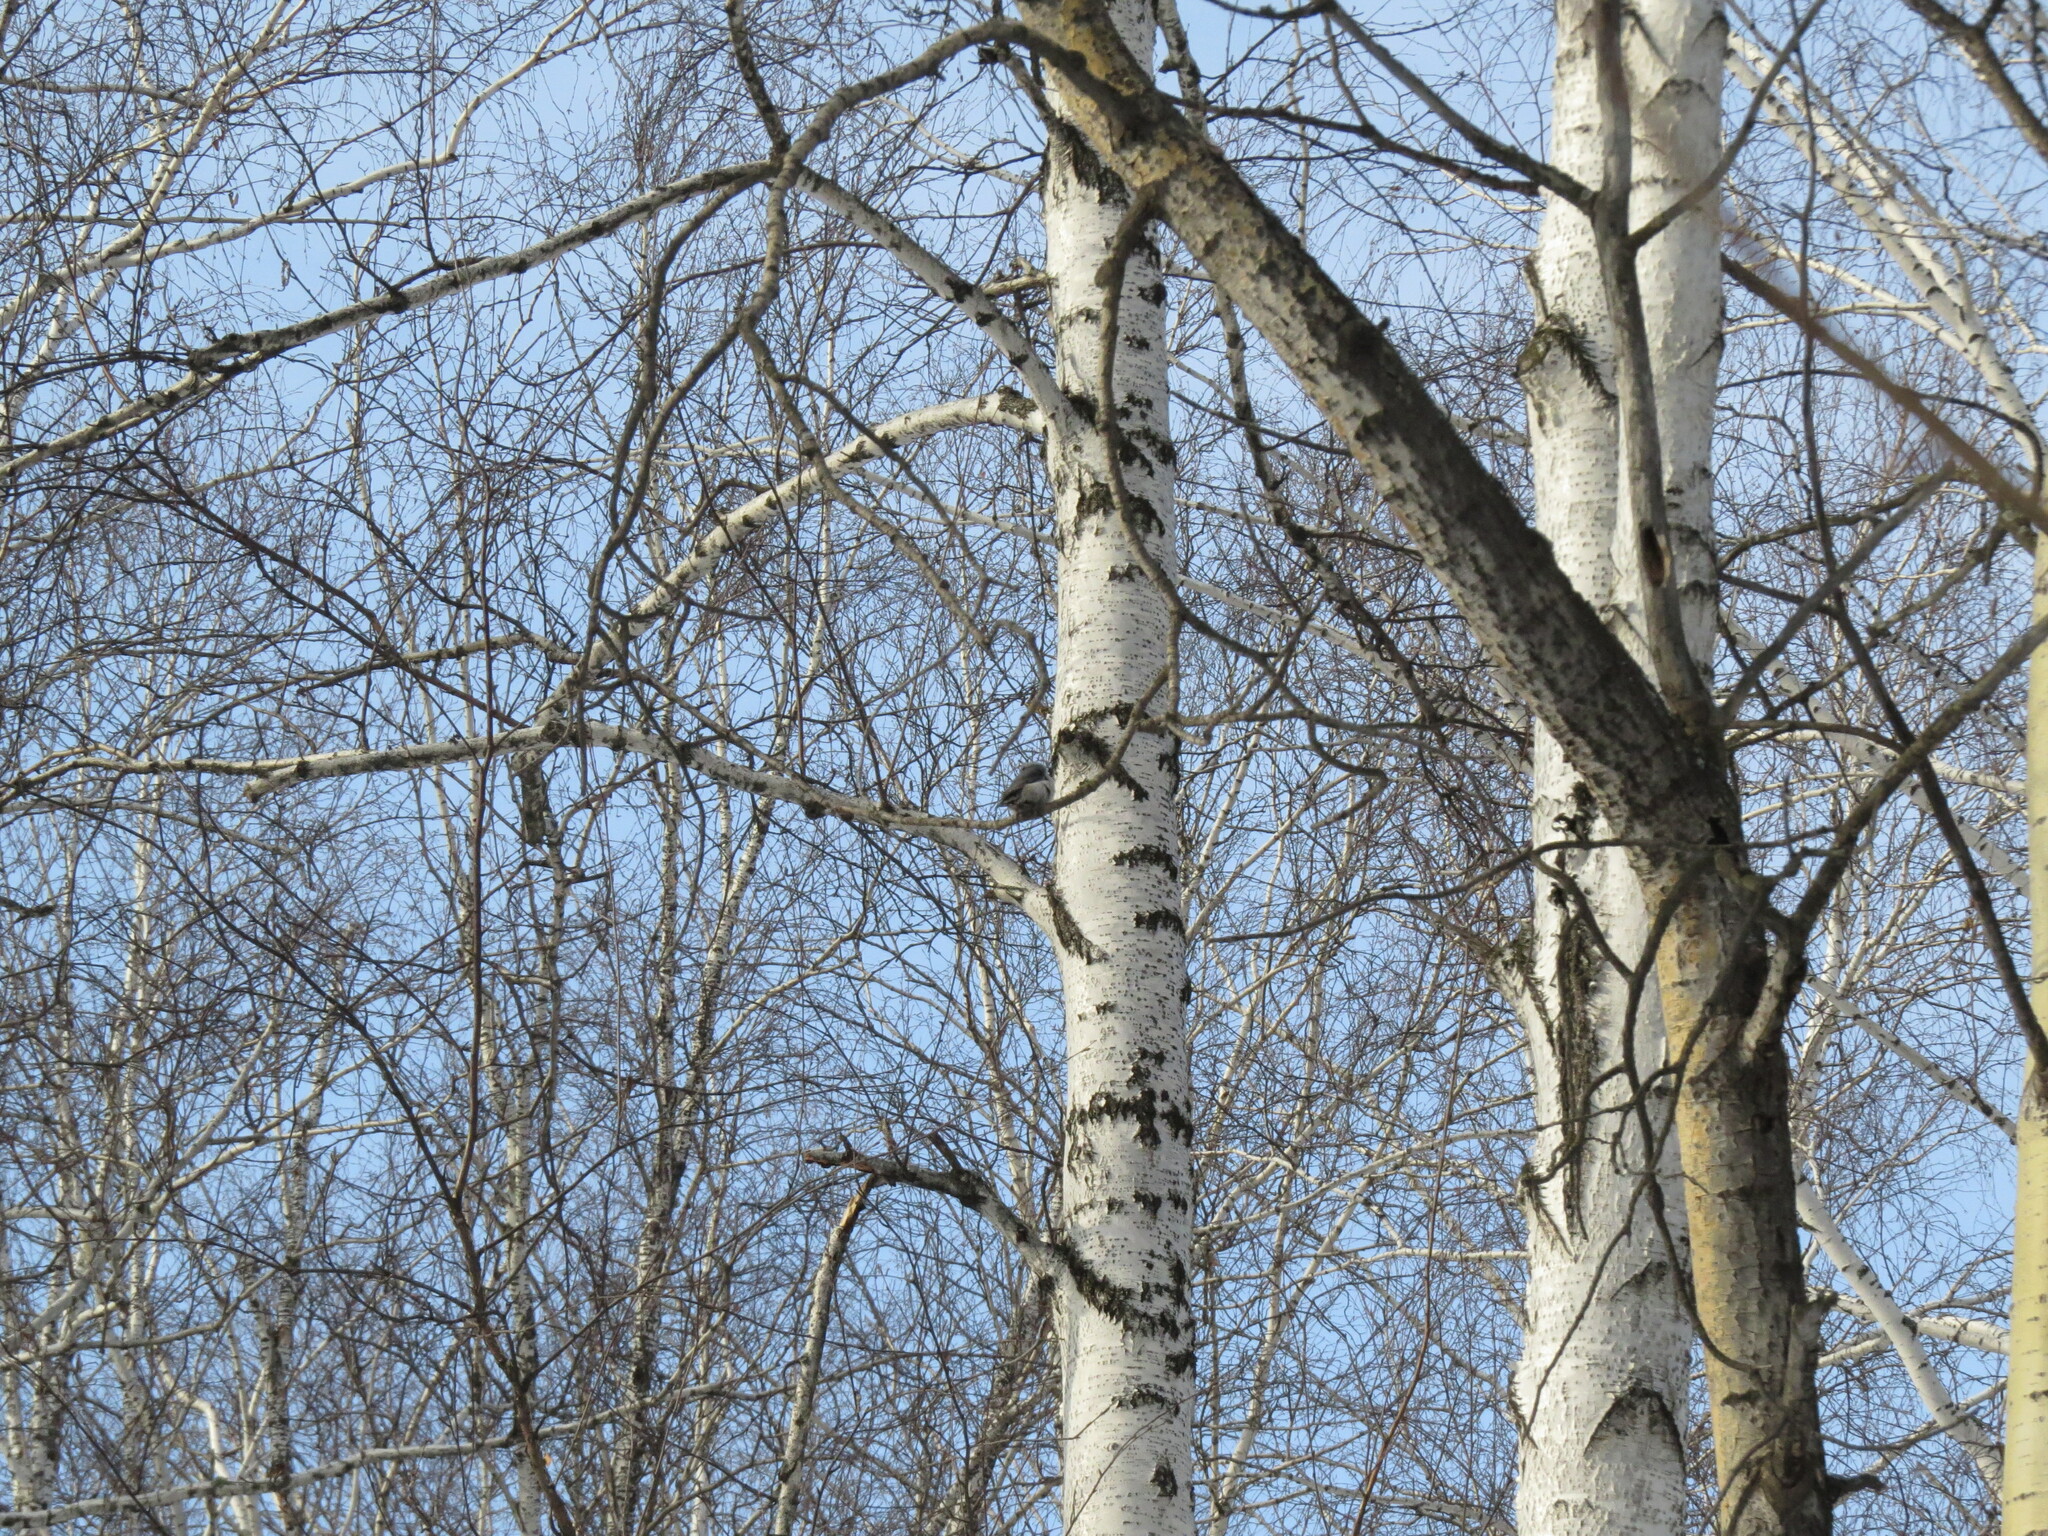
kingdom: Animalia
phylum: Chordata
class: Aves
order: Passeriformes
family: Sittidae
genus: Sitta
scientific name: Sitta europaea
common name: Eurasian nuthatch
